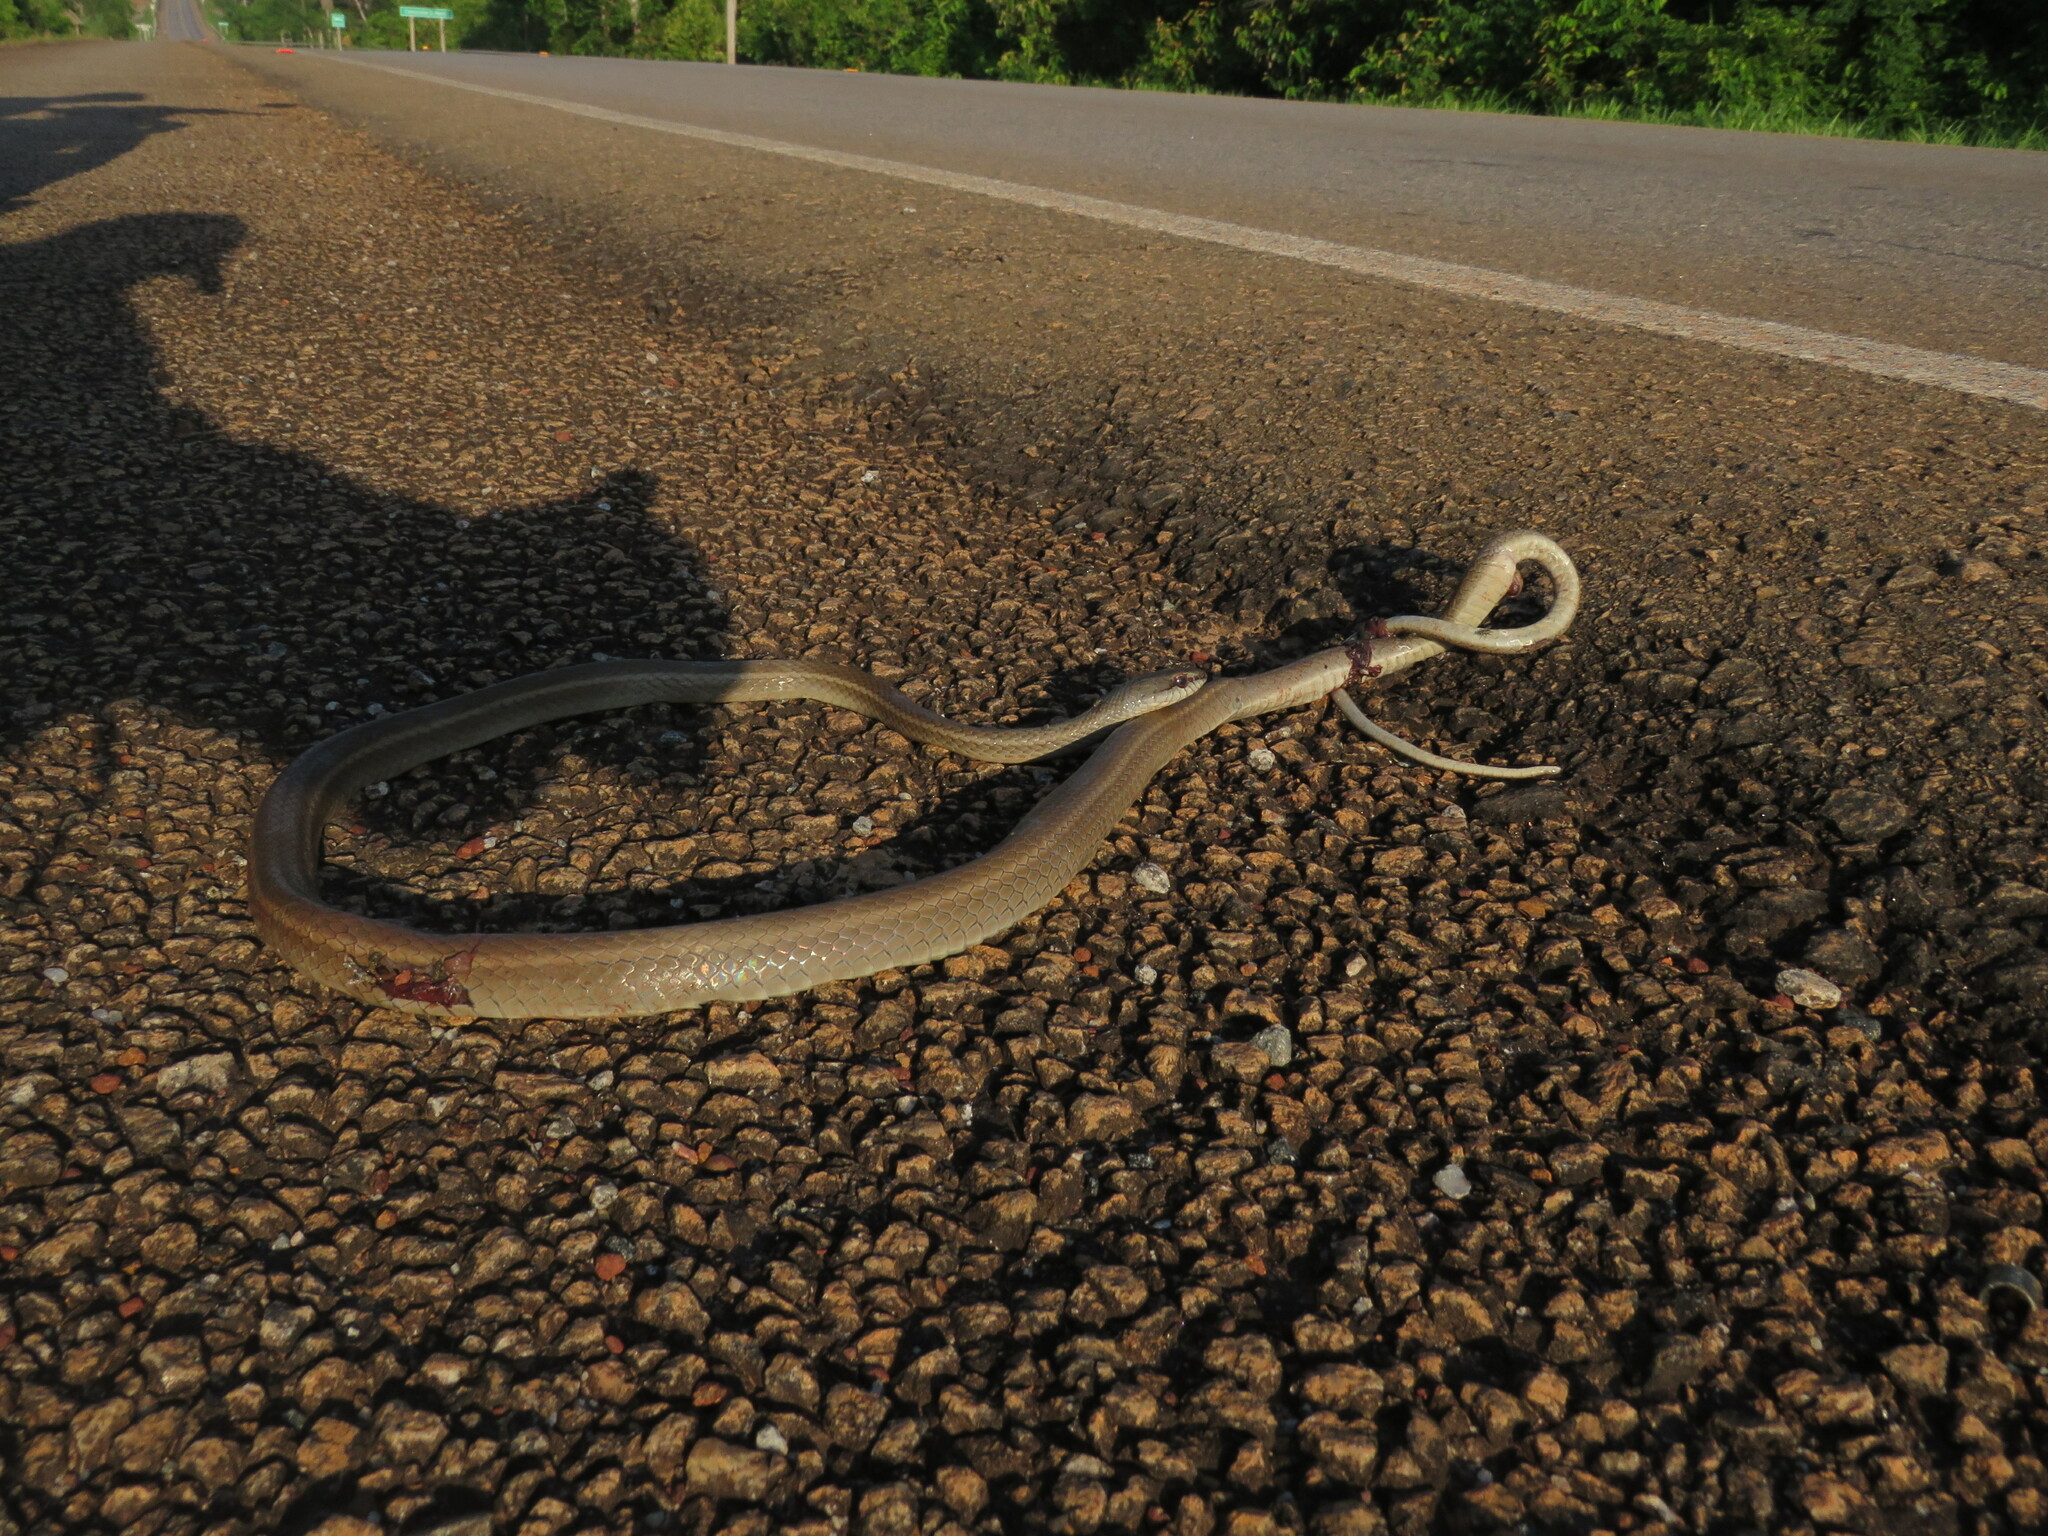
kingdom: Animalia
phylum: Chordata
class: Squamata
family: Colubridae
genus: Mastigodryas
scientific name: Mastigodryas boddaerti
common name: Boddaert's tropical racer
